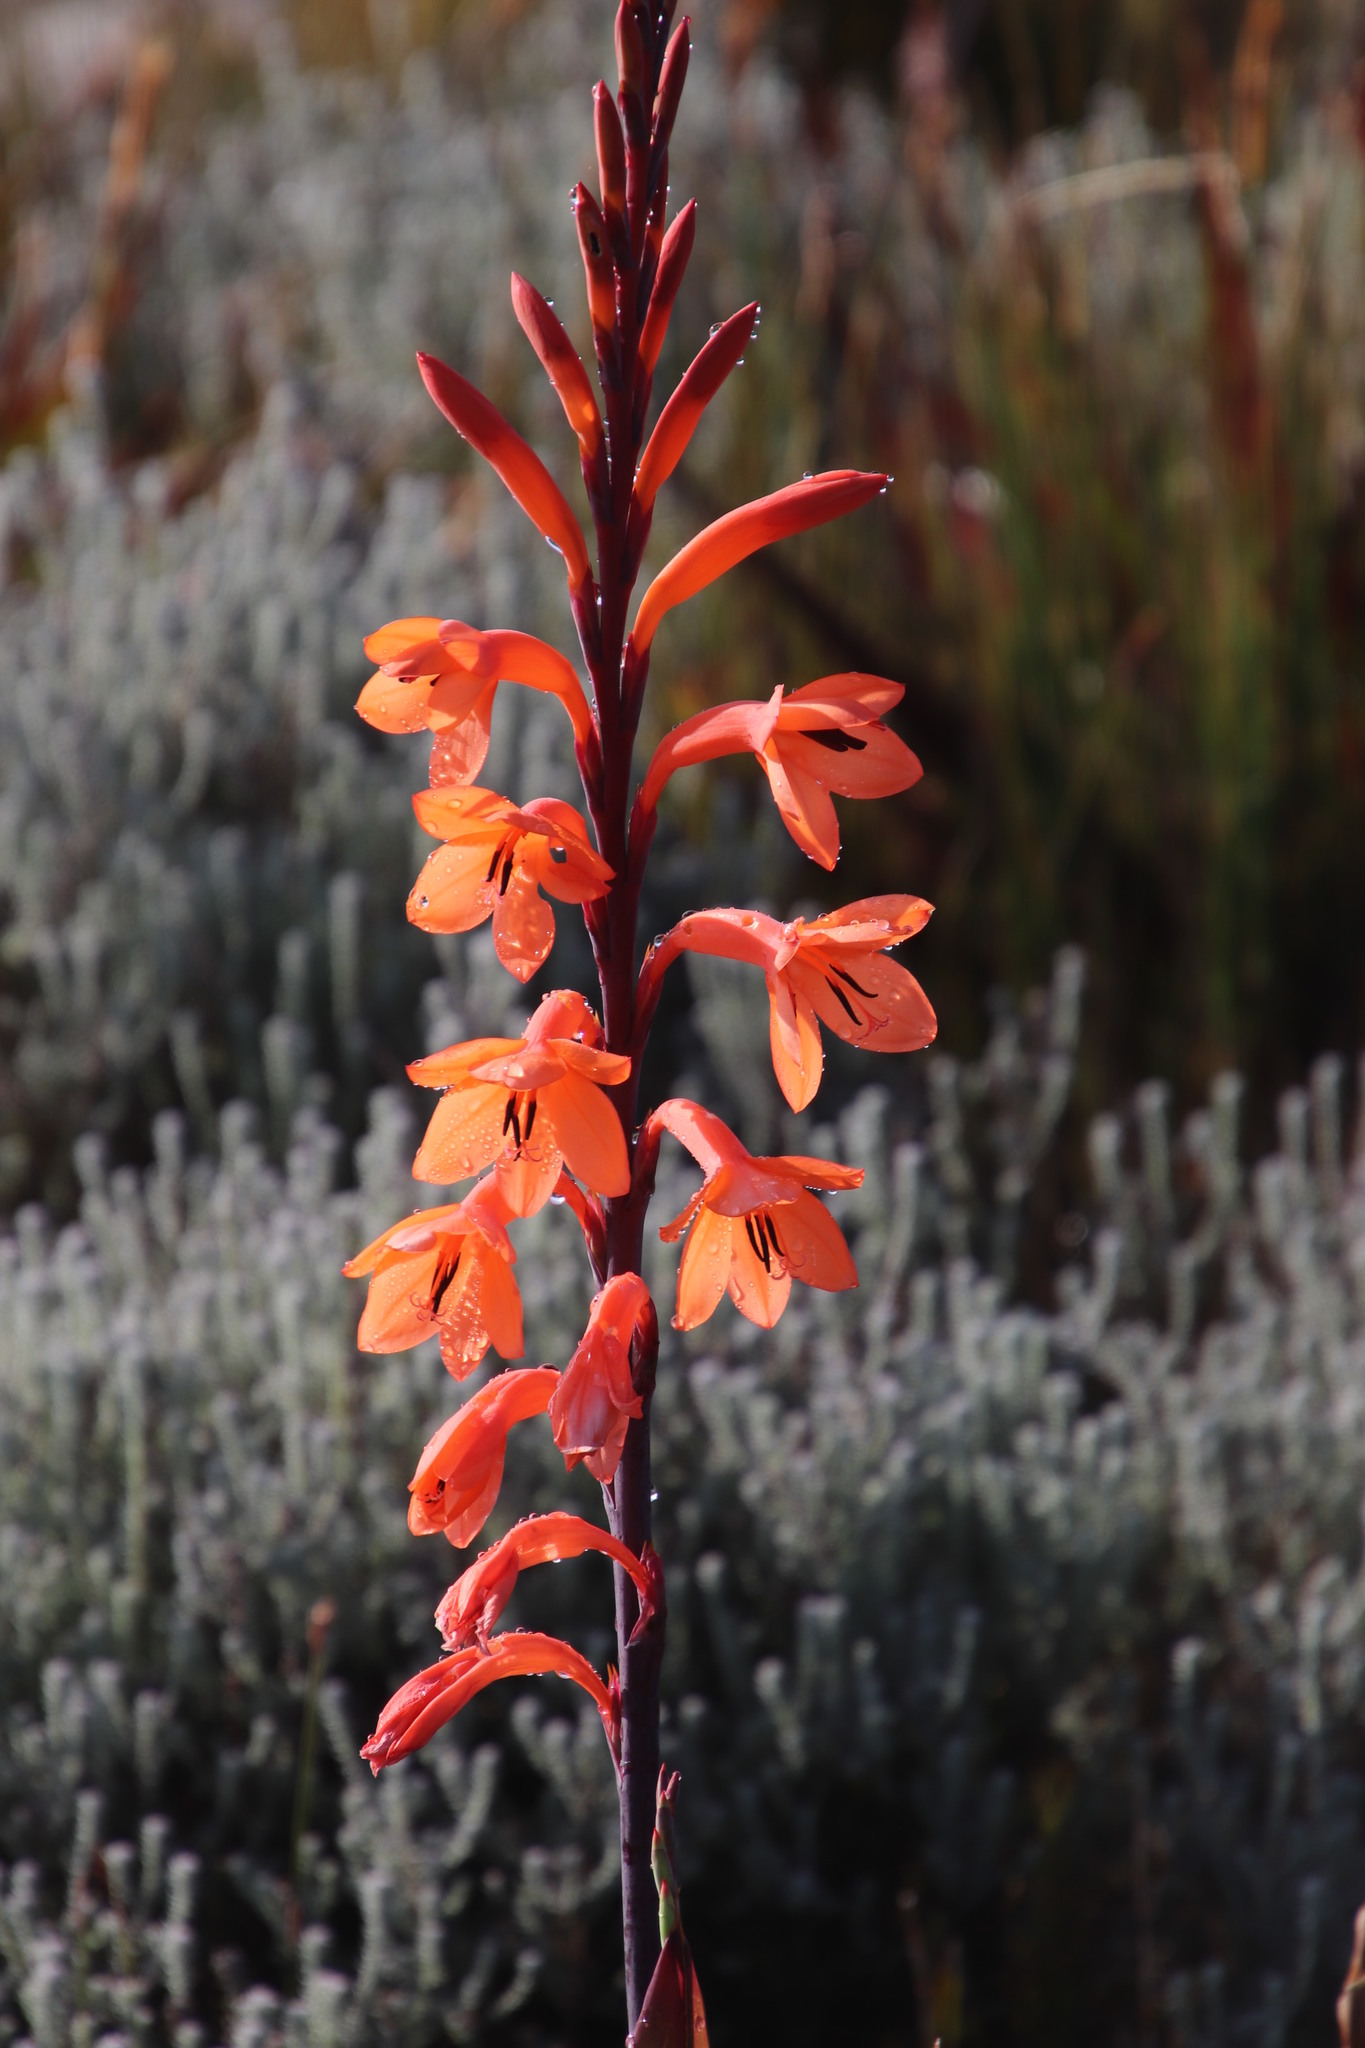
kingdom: Plantae
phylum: Tracheophyta
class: Liliopsida
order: Asparagales
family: Iridaceae
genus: Watsonia
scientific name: Watsonia tabularis
